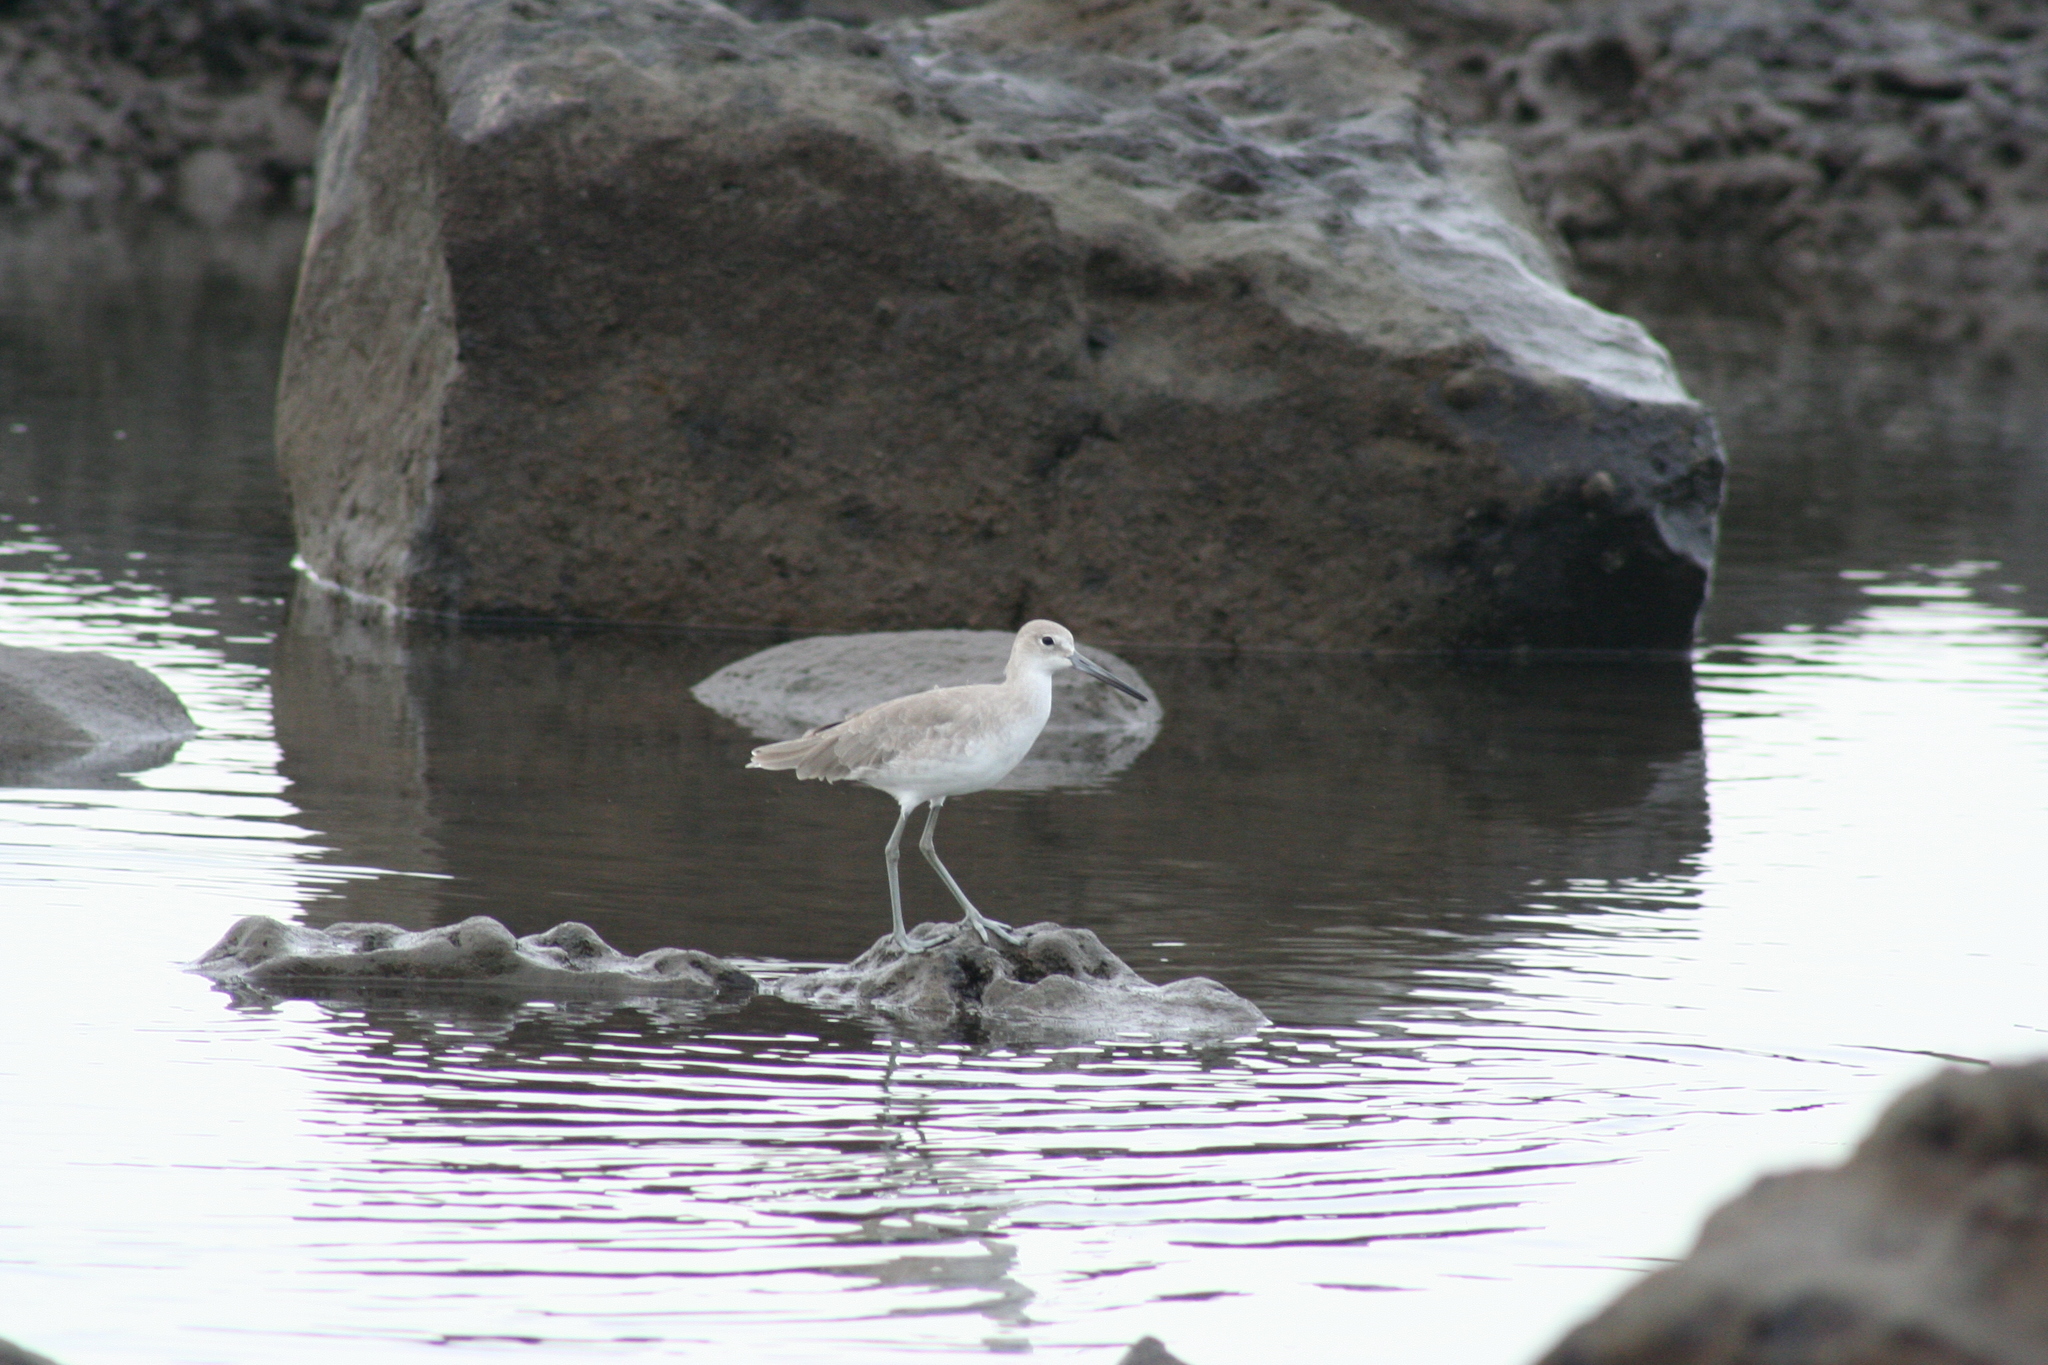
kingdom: Animalia
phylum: Chordata
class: Aves
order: Charadriiformes
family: Scolopacidae
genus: Tringa
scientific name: Tringa semipalmata
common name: Willet
